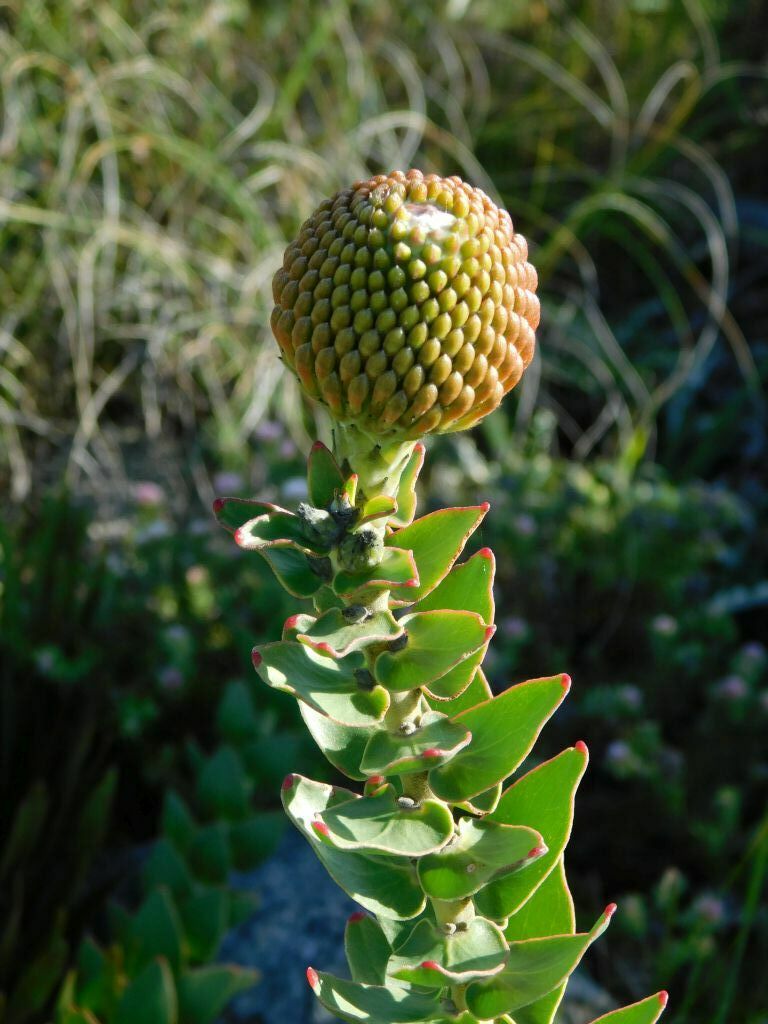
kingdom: Plantae
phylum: Tracheophyta
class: Magnoliopsida
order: Proteales
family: Proteaceae
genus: Leucospermum
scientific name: Leucospermum cordifolium
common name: Red pincushion-protea
